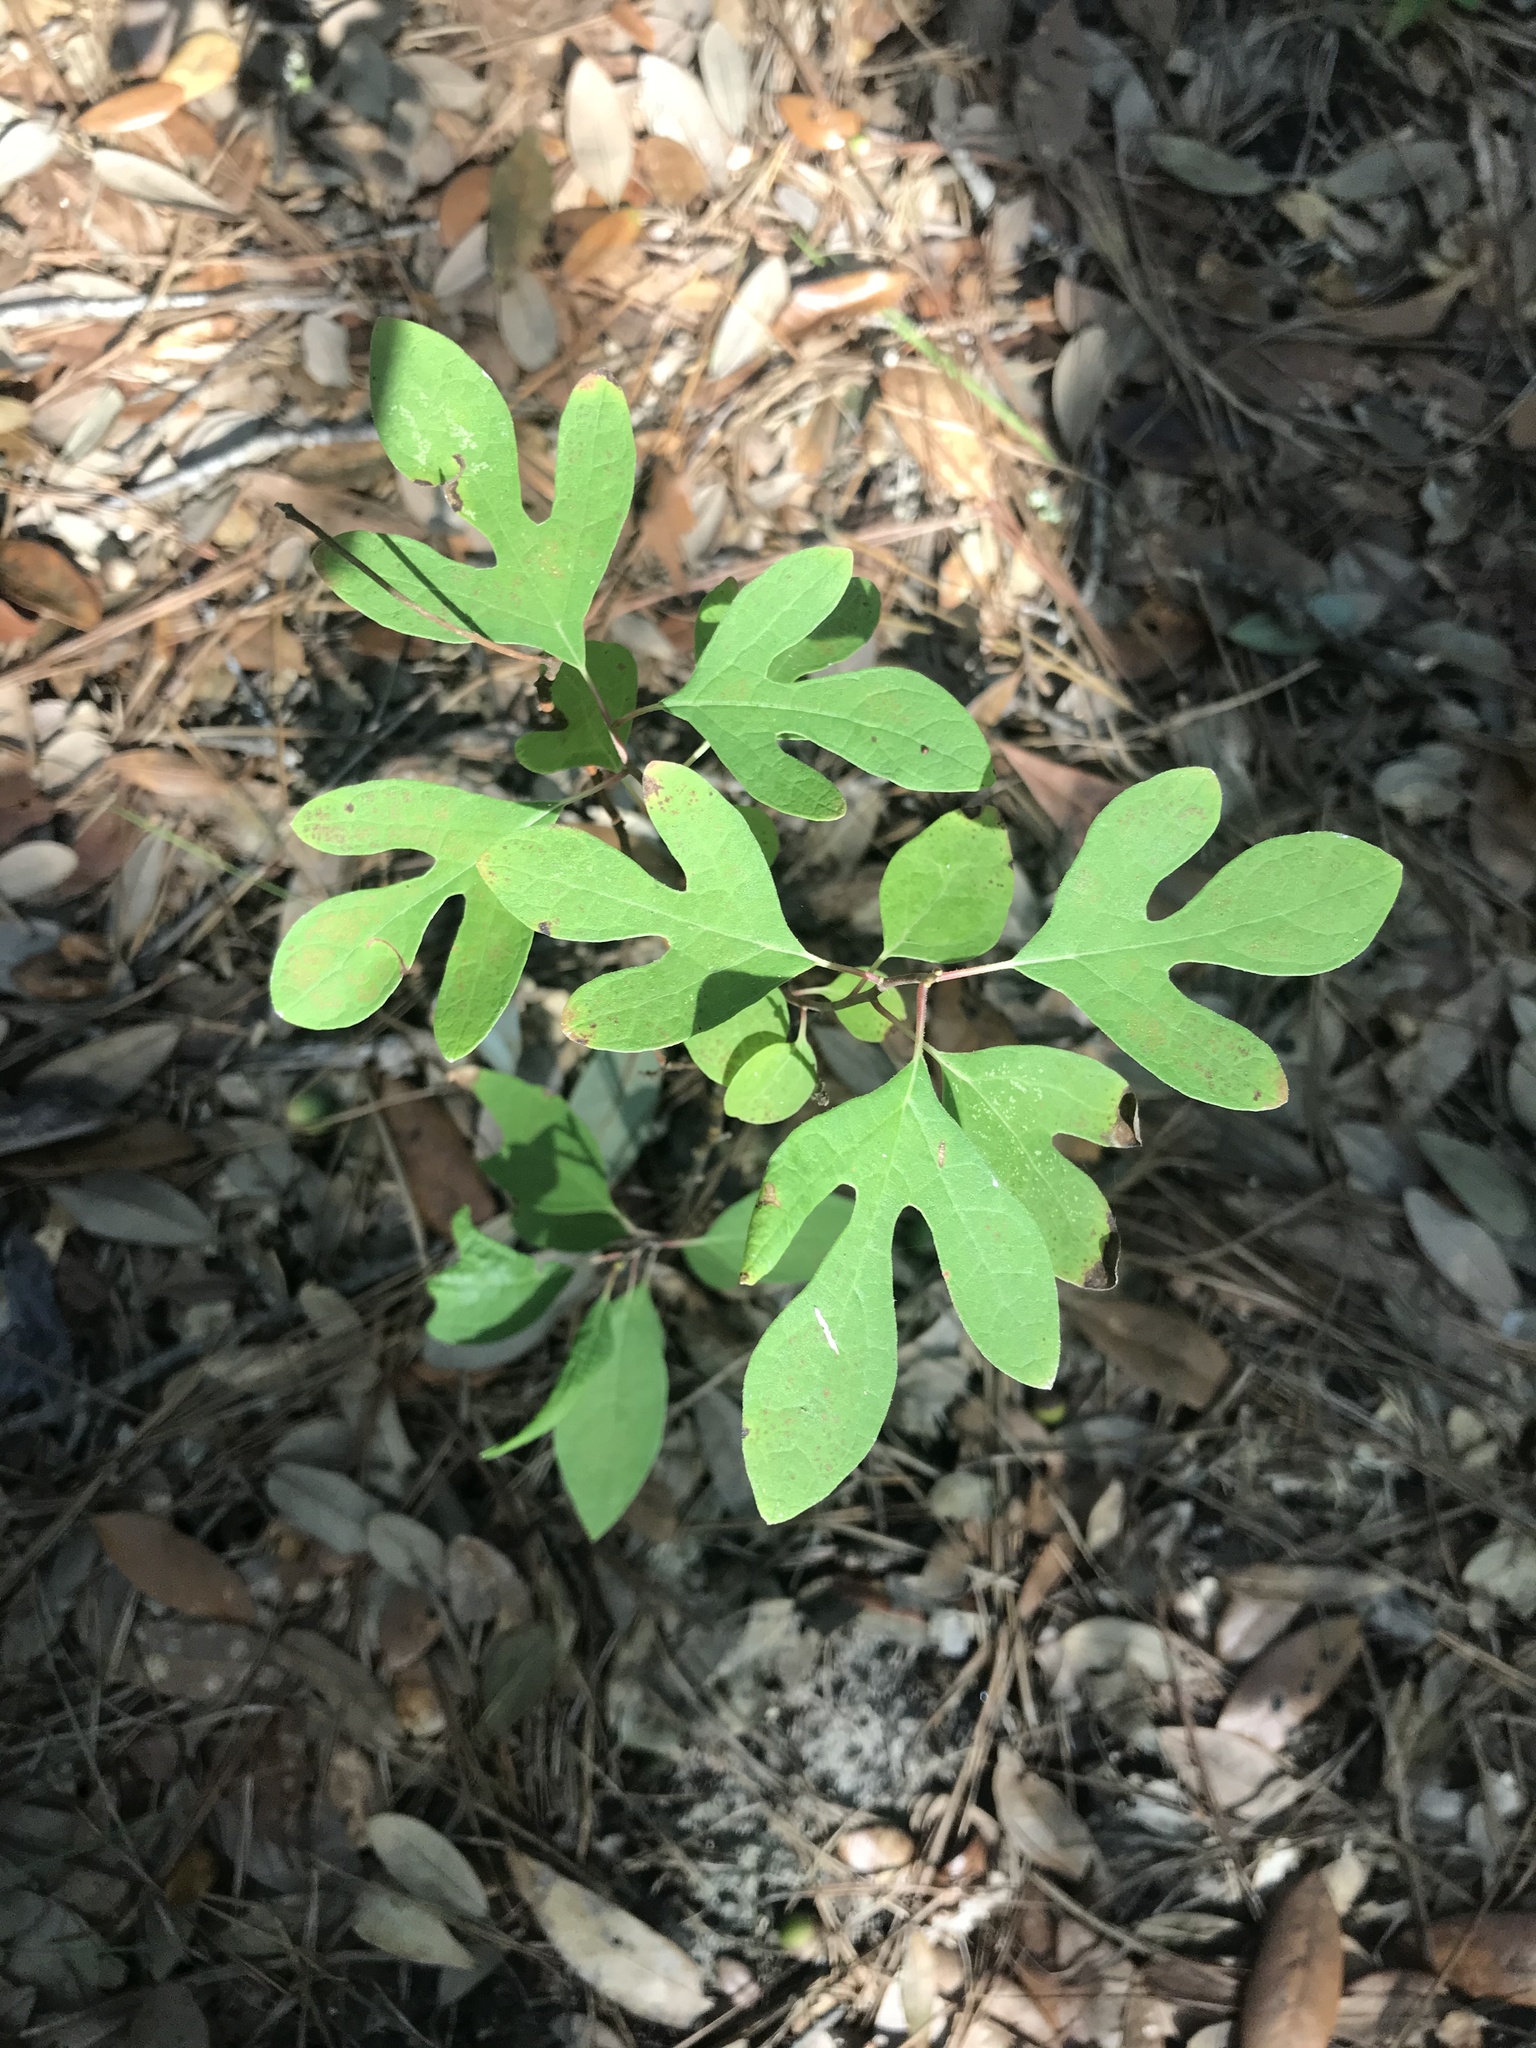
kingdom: Plantae
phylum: Tracheophyta
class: Magnoliopsida
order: Laurales
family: Lauraceae
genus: Sassafras
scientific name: Sassafras albidum
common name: Sassafras
